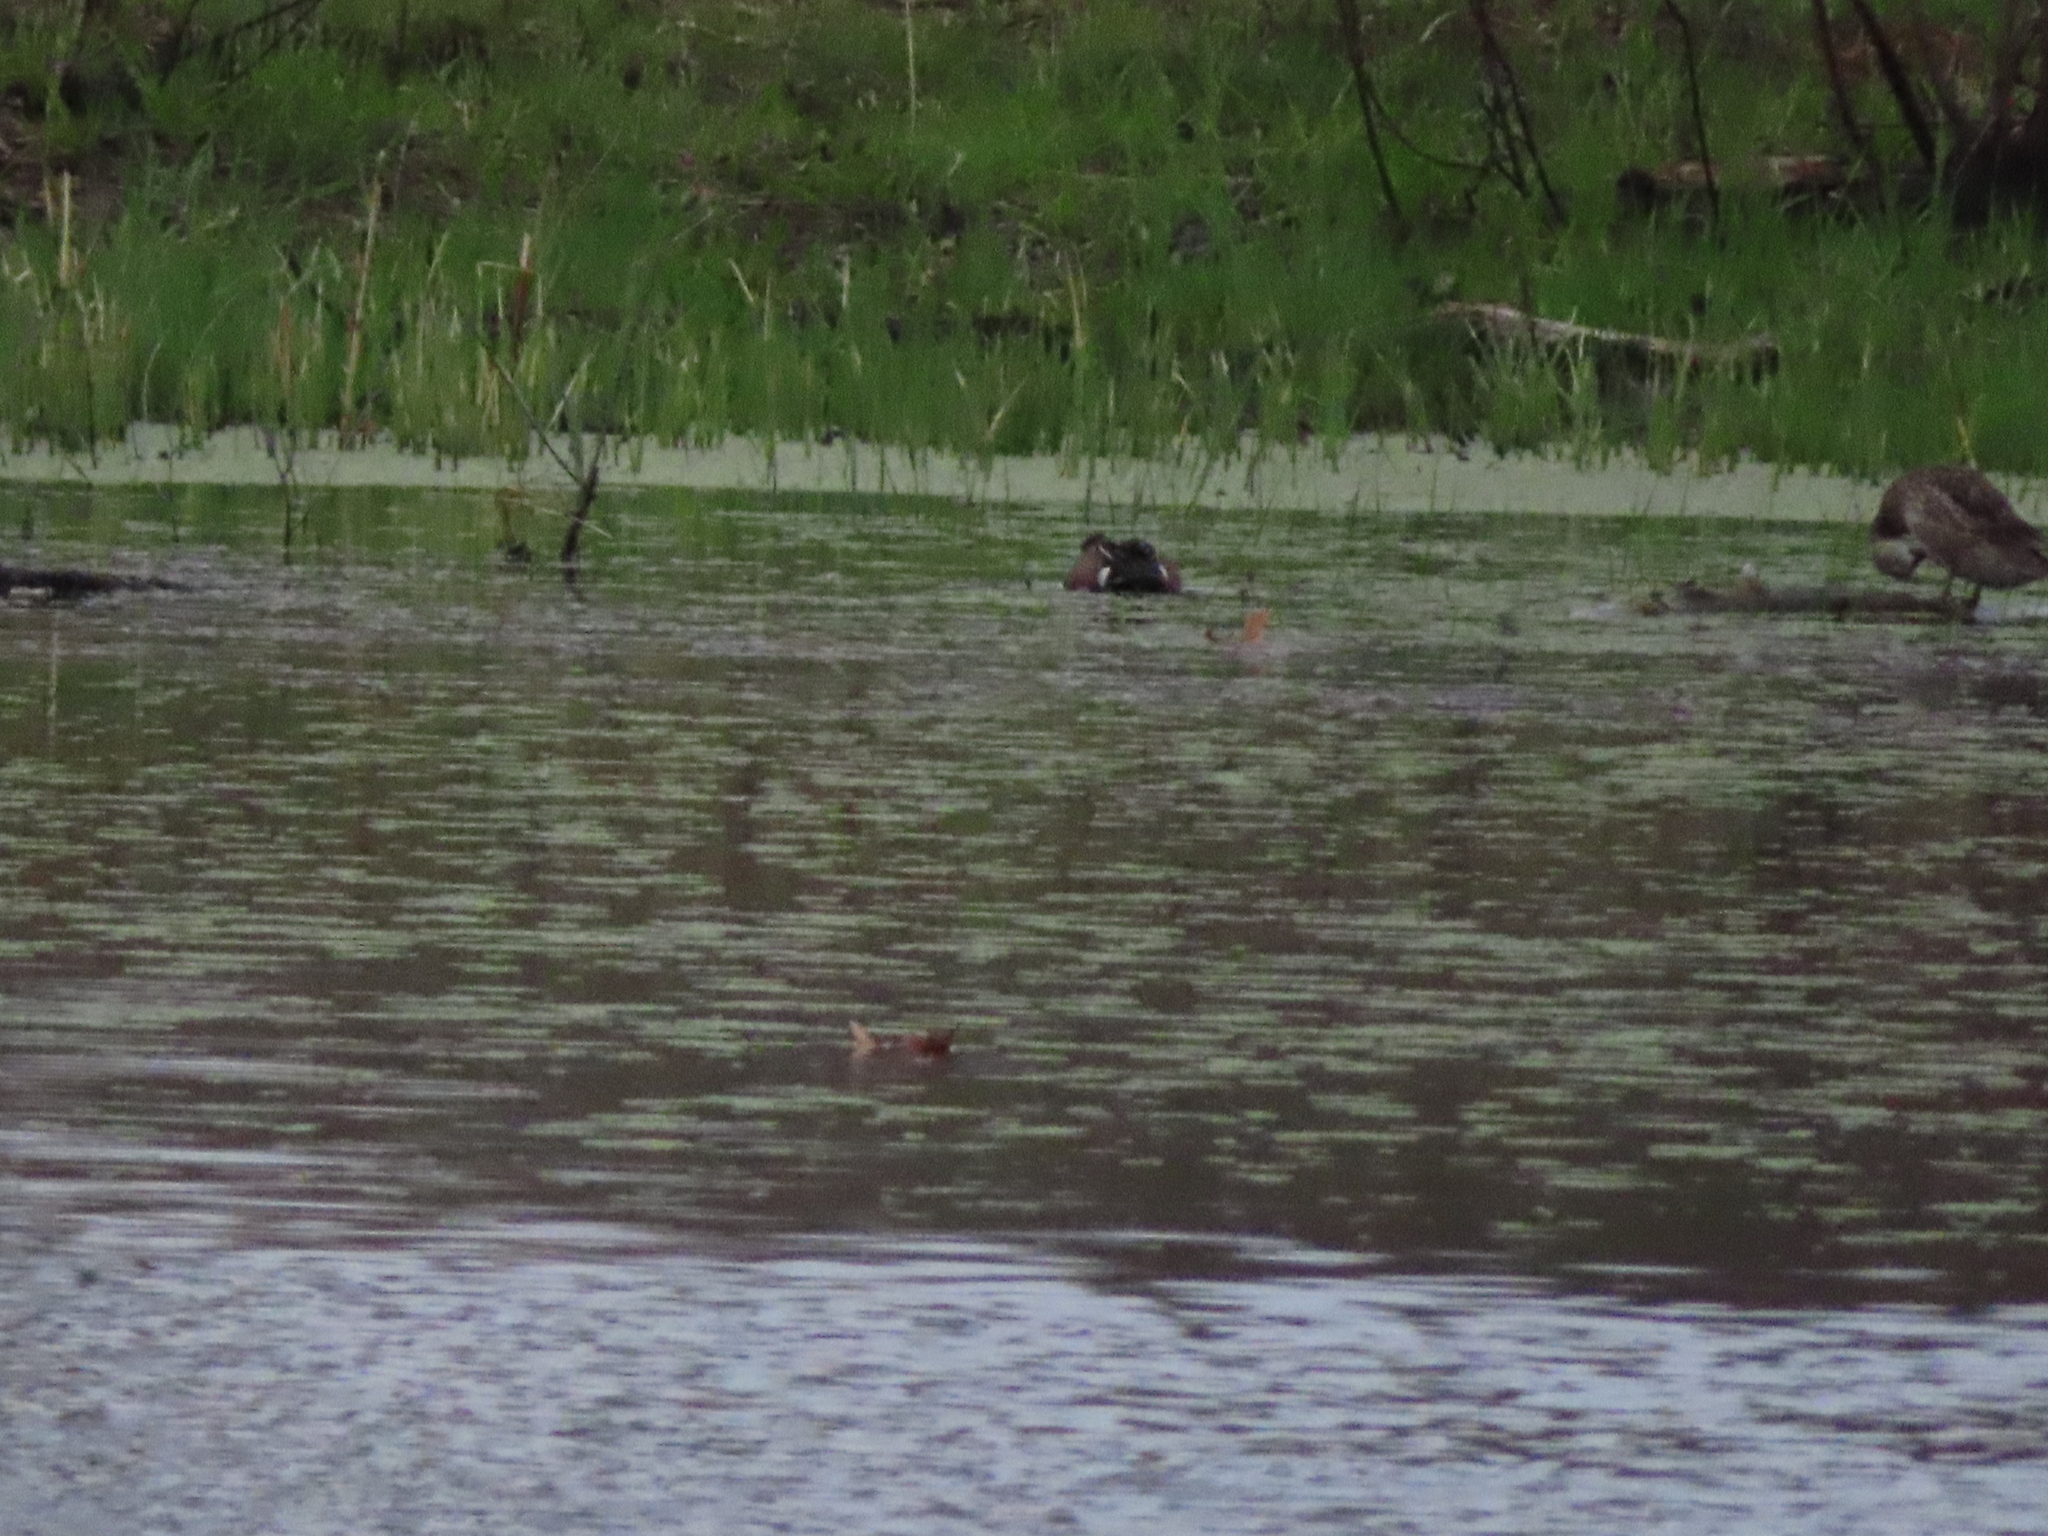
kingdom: Animalia
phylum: Chordata
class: Aves
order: Anseriformes
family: Anatidae
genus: Spatula
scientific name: Spatula discors
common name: Blue-winged teal
